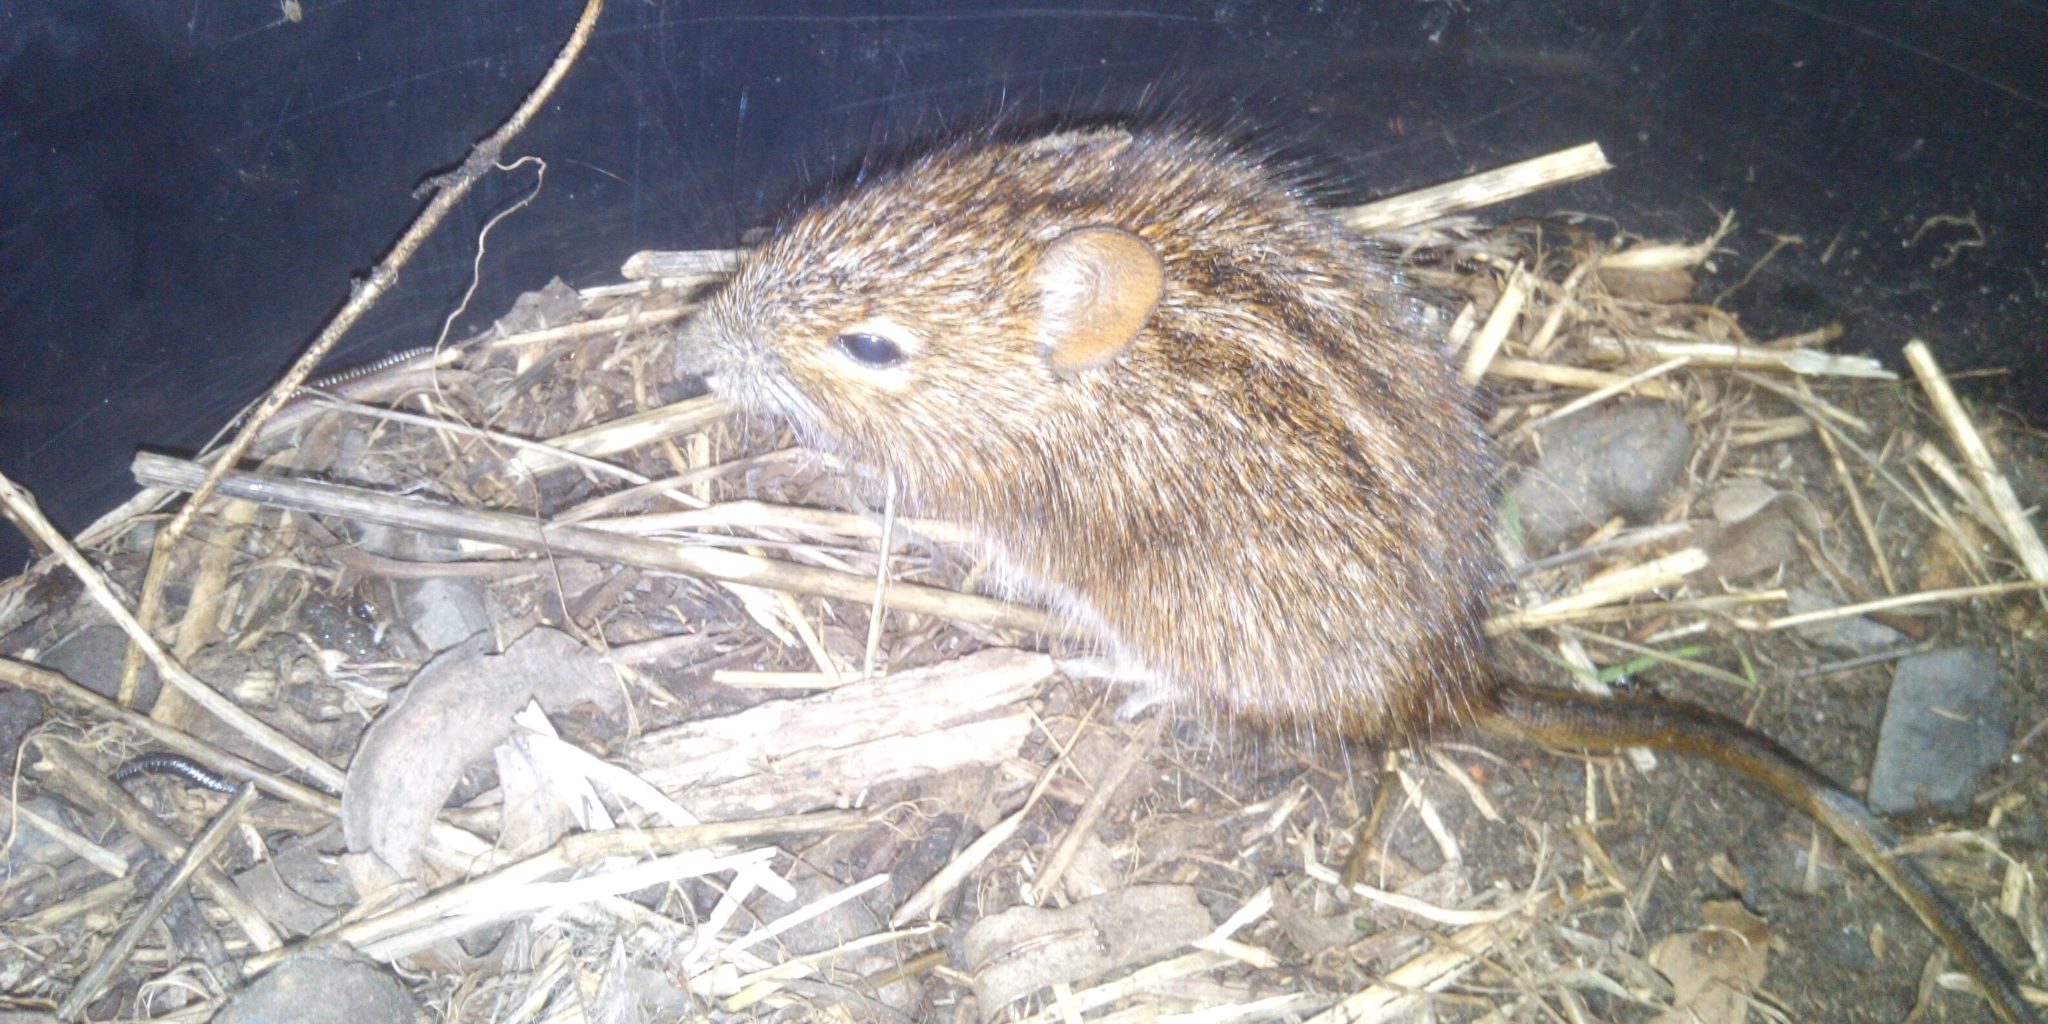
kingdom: Animalia
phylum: Chordata
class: Mammalia
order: Rodentia
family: Muridae
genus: Rhabdomys
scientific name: Rhabdomys pumilio
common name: Xeric four-striped grass rat
